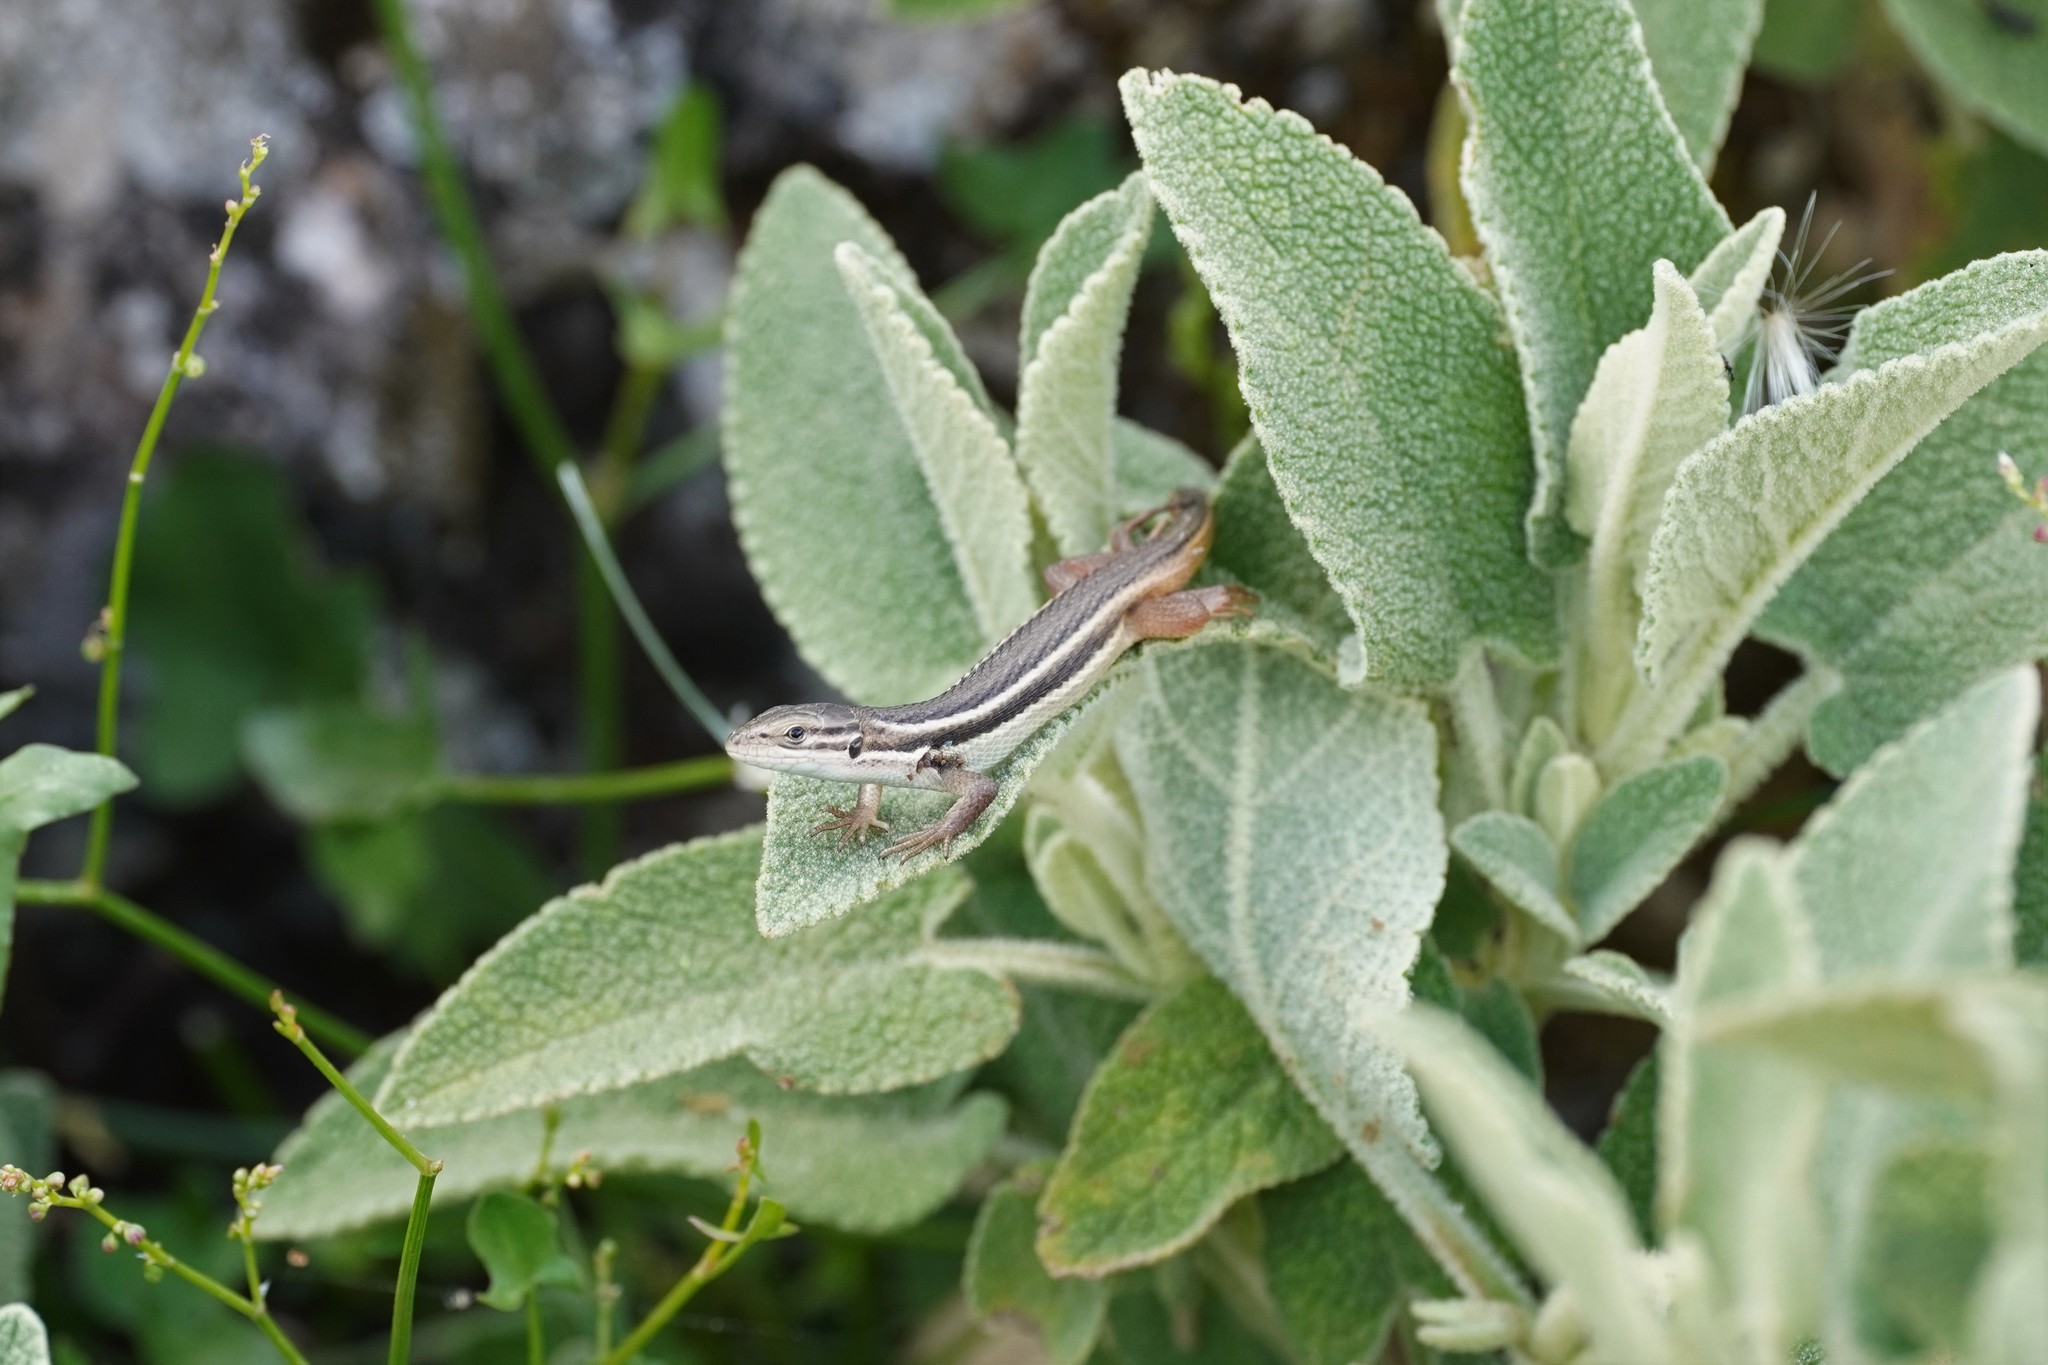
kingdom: Animalia
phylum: Chordata
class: Squamata
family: Lacertidae
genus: Psammodromus
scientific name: Psammodromus algirus
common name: Algerian psammodromus
